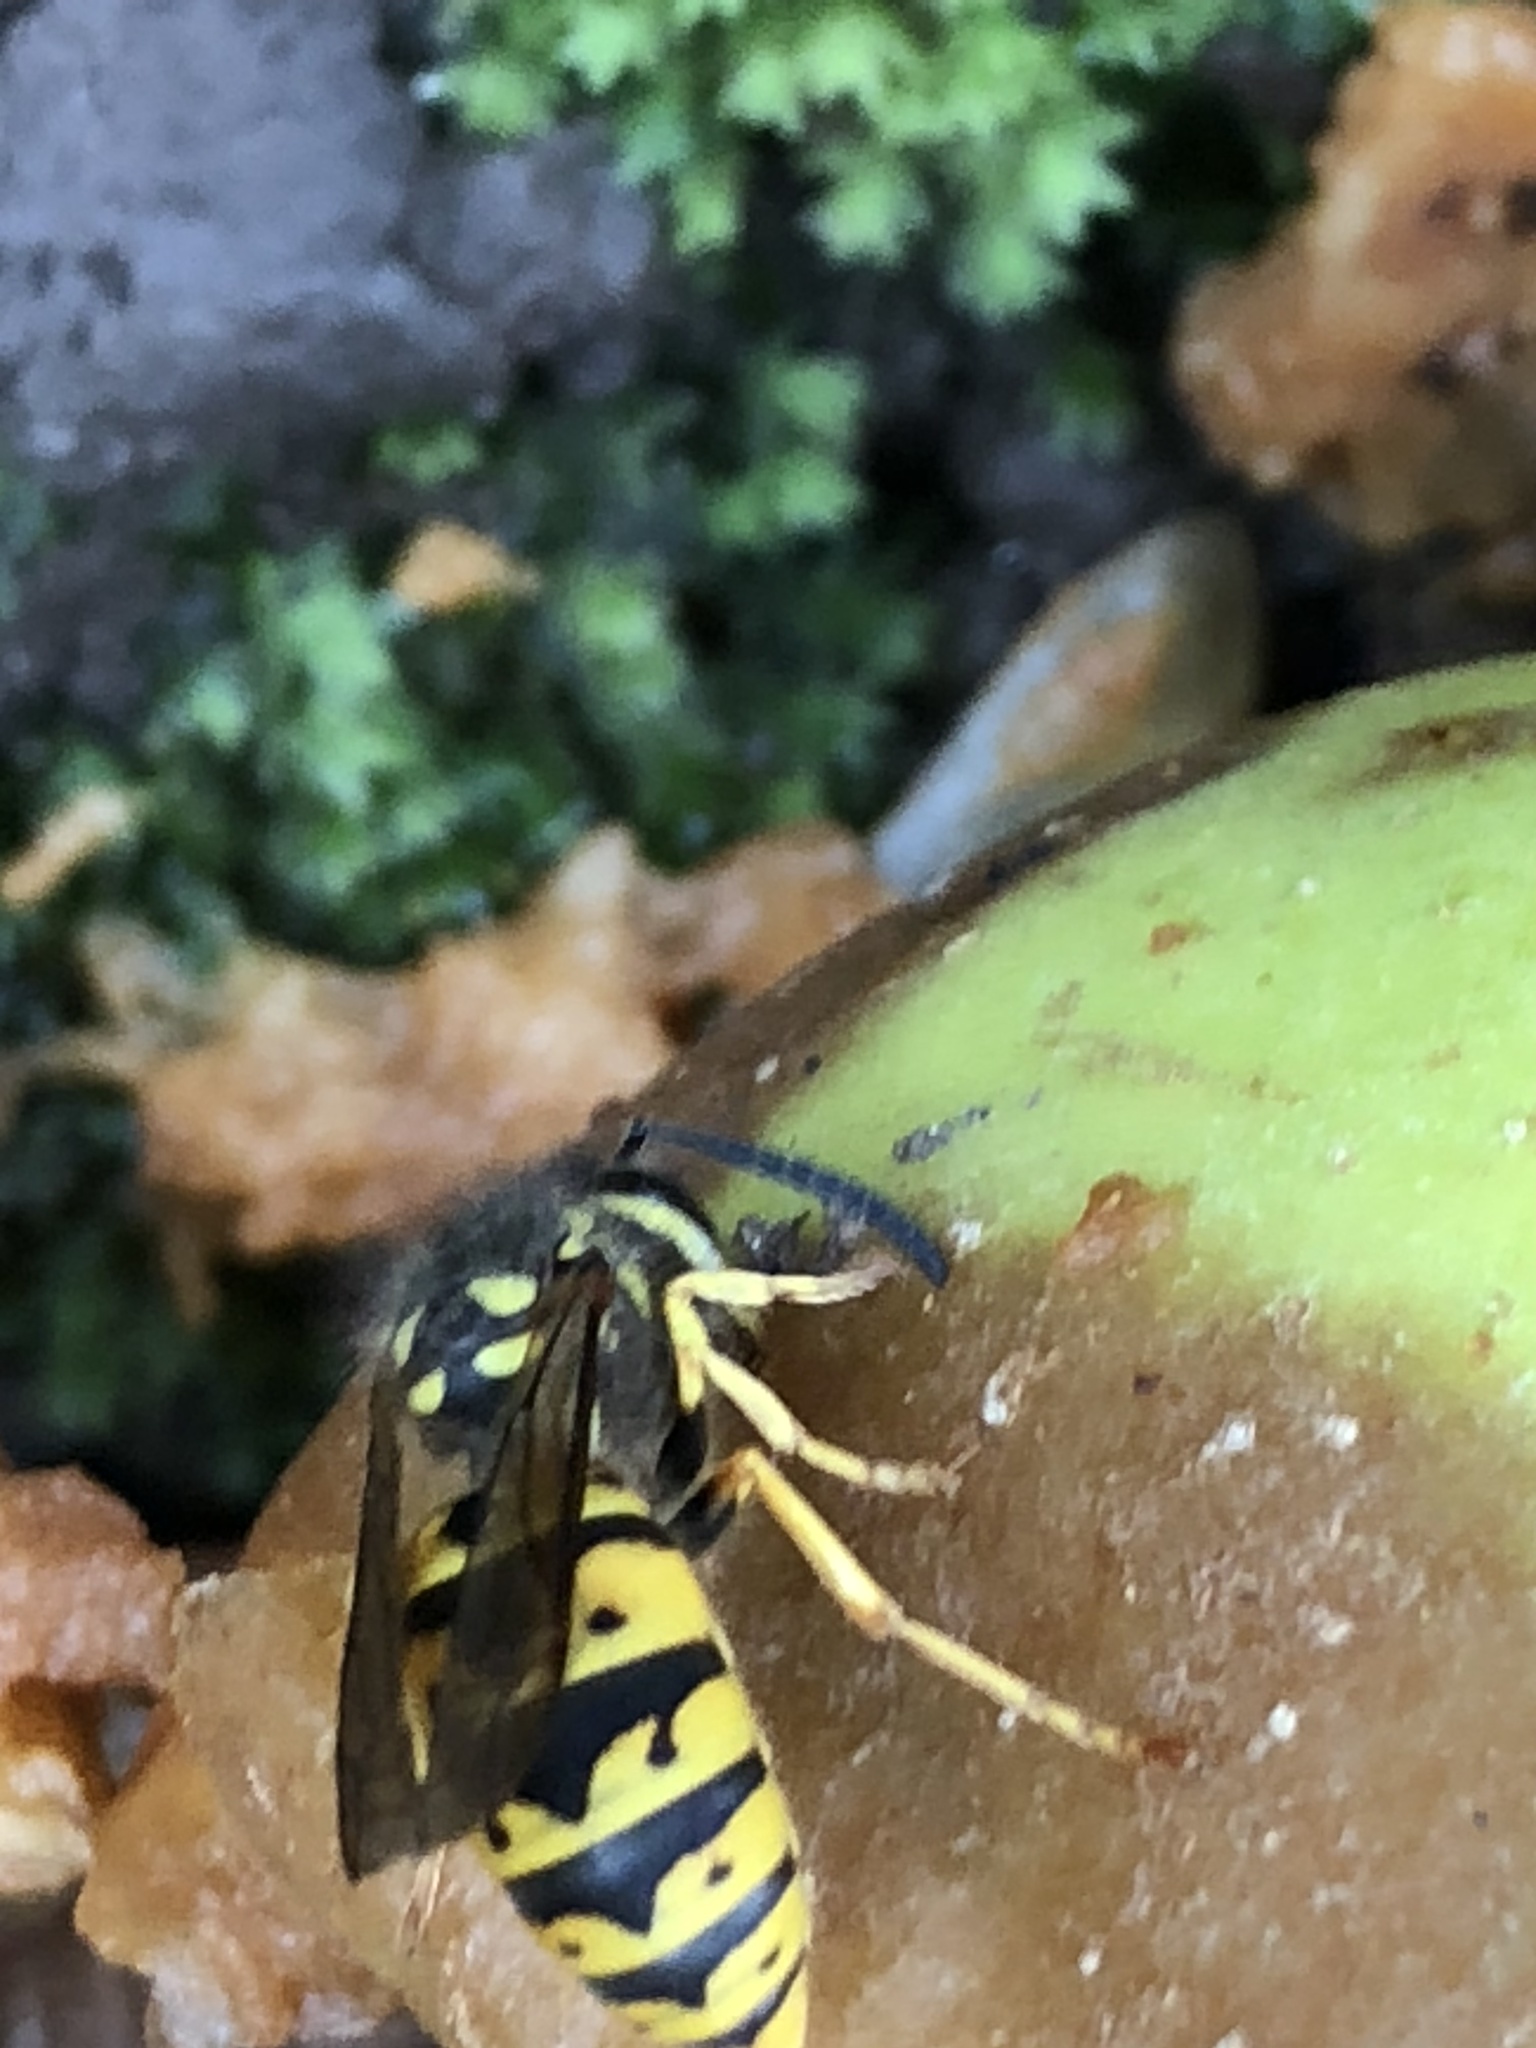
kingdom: Animalia
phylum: Arthropoda
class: Insecta
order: Hymenoptera
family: Vespidae
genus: Vespula
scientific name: Vespula germanica
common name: German wasp
